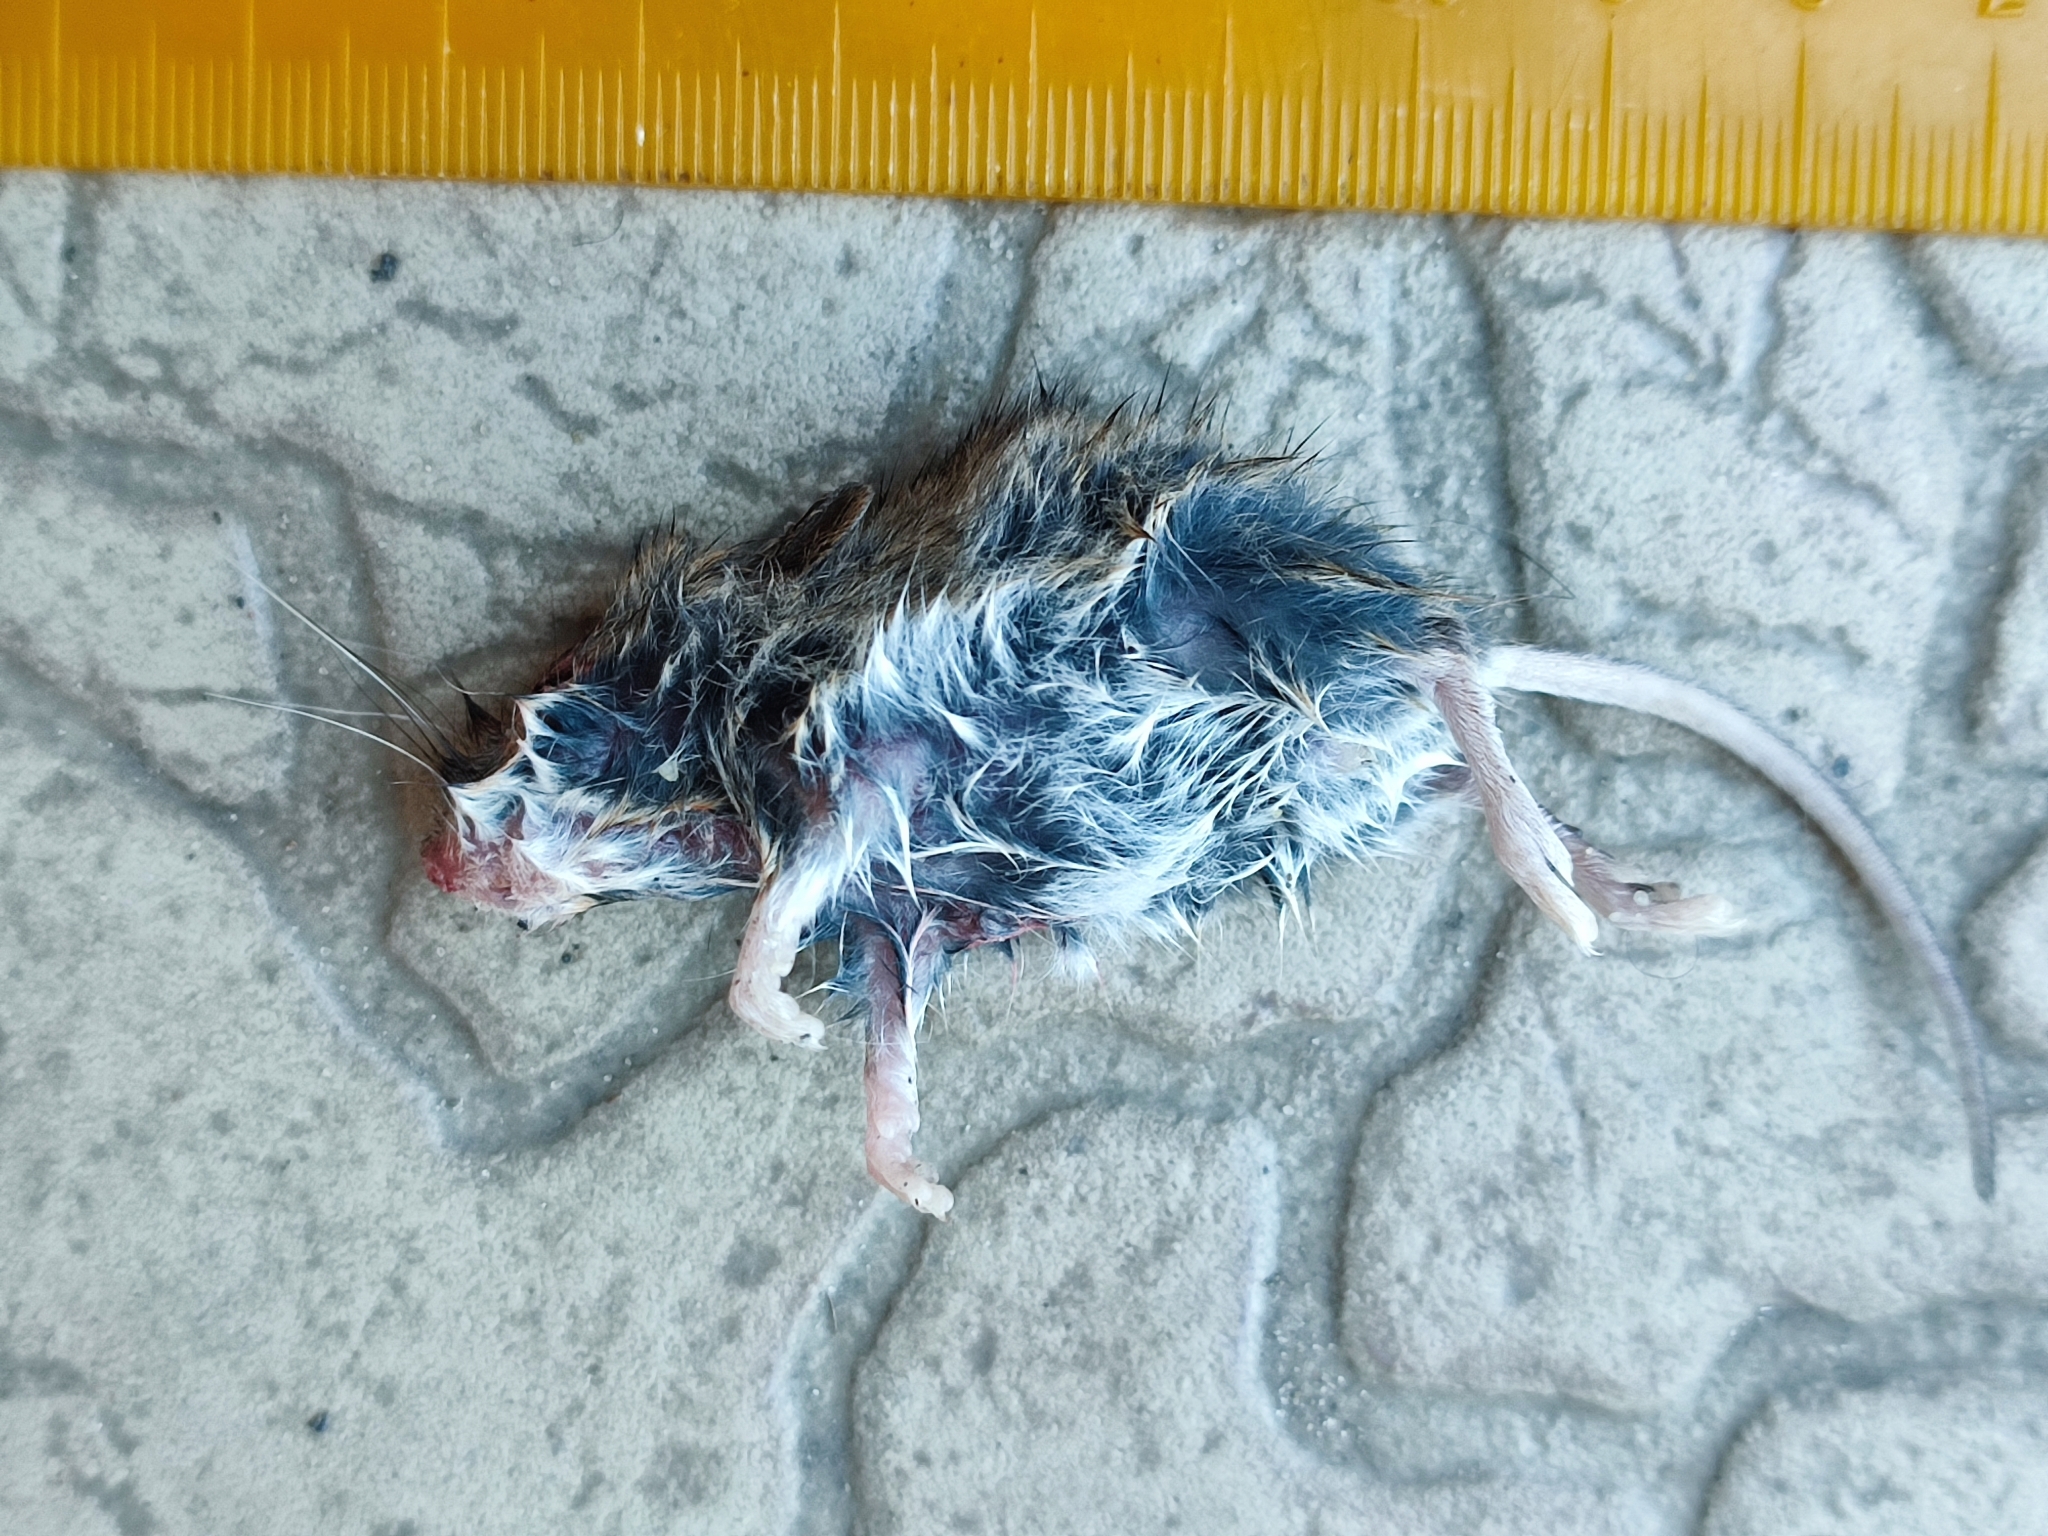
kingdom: Animalia
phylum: Chordata
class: Mammalia
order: Rodentia
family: Muridae
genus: Apodemus
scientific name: Apodemus uralensis
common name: Herb field mouse
